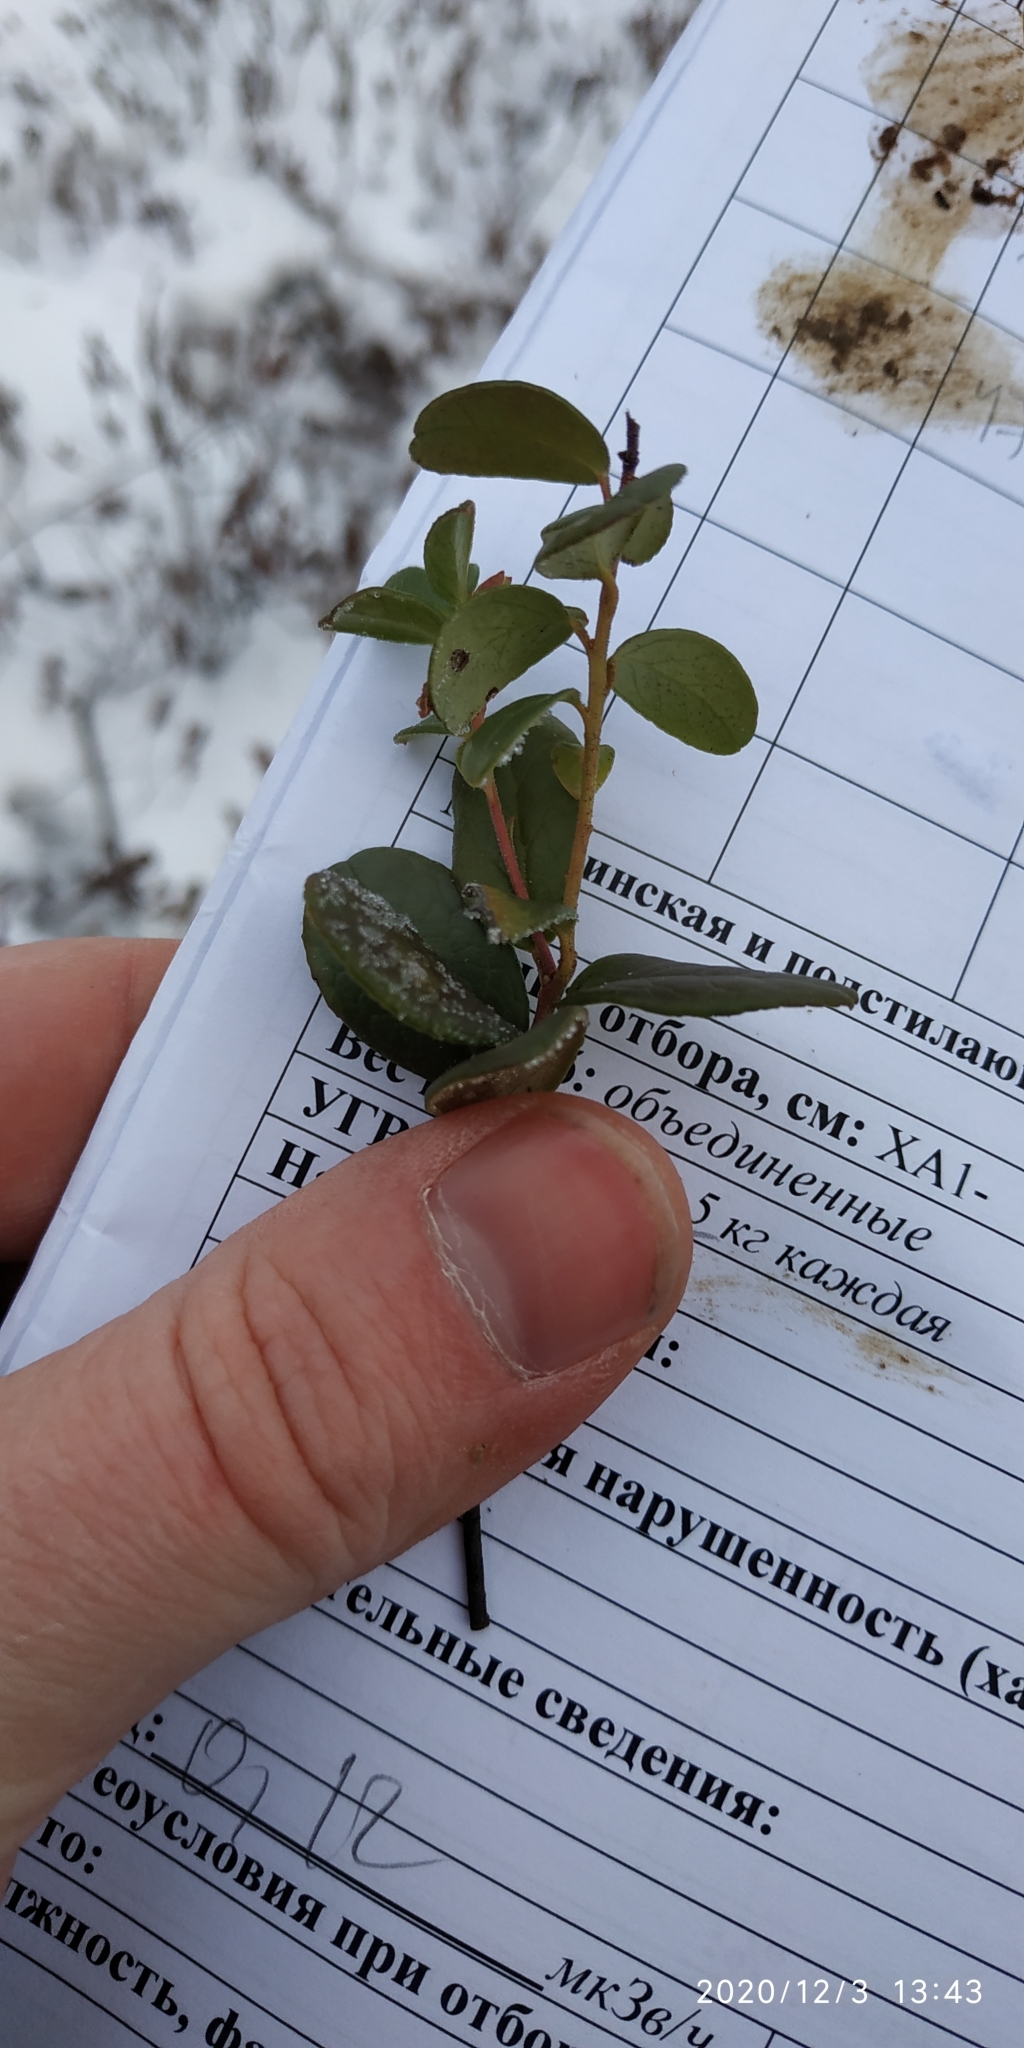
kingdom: Plantae
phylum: Tracheophyta
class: Magnoliopsida
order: Ericales
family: Ericaceae
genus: Vaccinium
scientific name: Vaccinium vitis-idaea
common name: Cowberry
